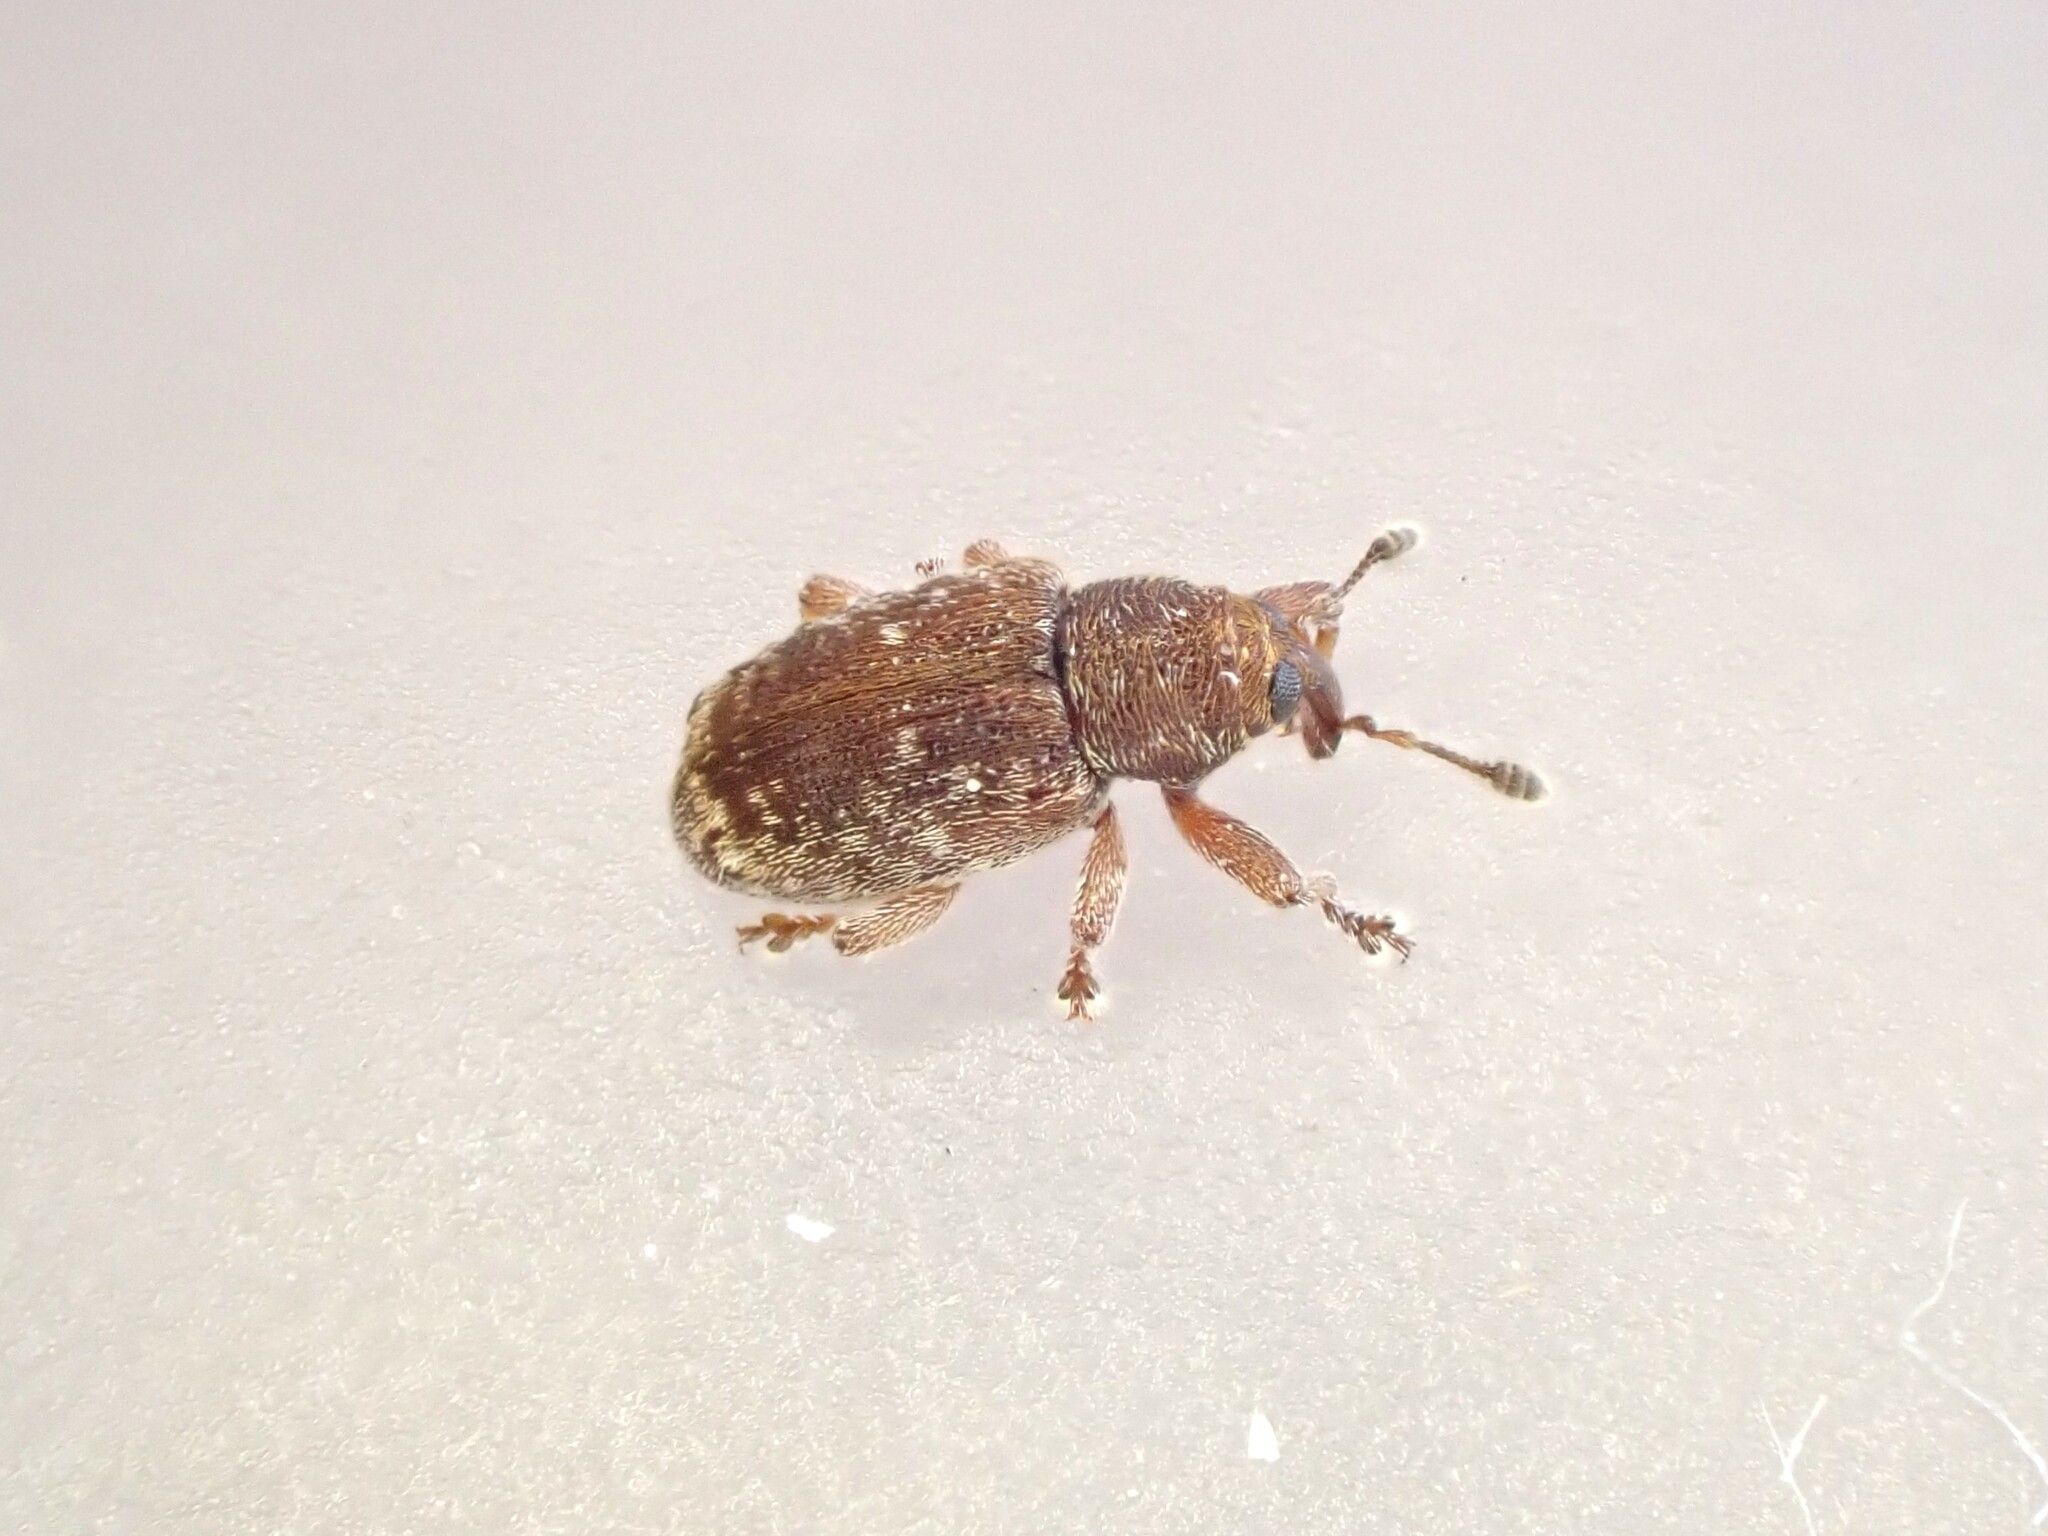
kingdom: Animalia
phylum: Arthropoda
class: Insecta
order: Coleoptera
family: Curculionidae
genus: Aneuma
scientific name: Aneuma fasciatum
